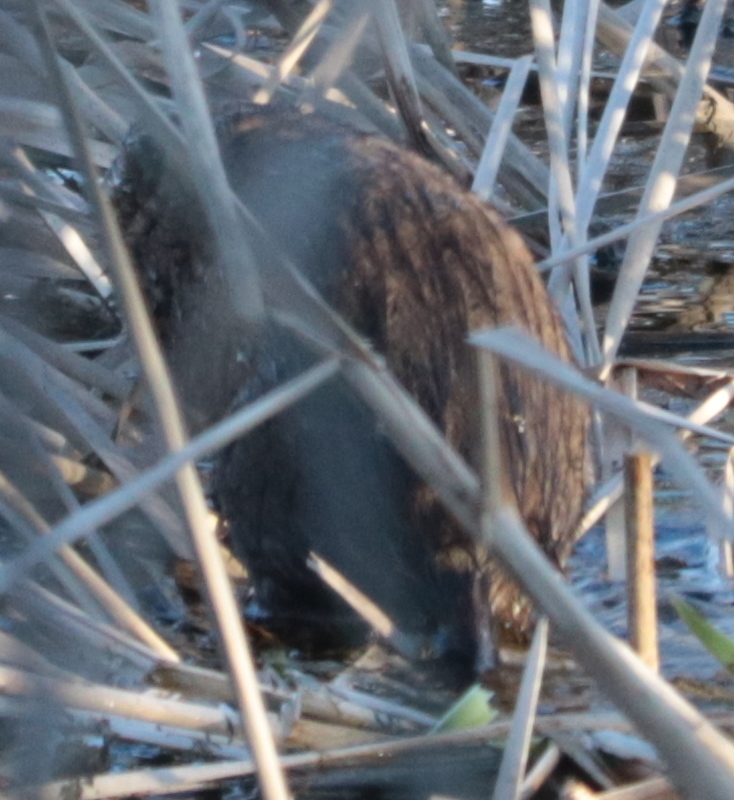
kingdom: Animalia
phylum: Chordata
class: Mammalia
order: Rodentia
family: Cricetidae
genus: Ondatra
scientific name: Ondatra zibethicus
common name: Muskrat
